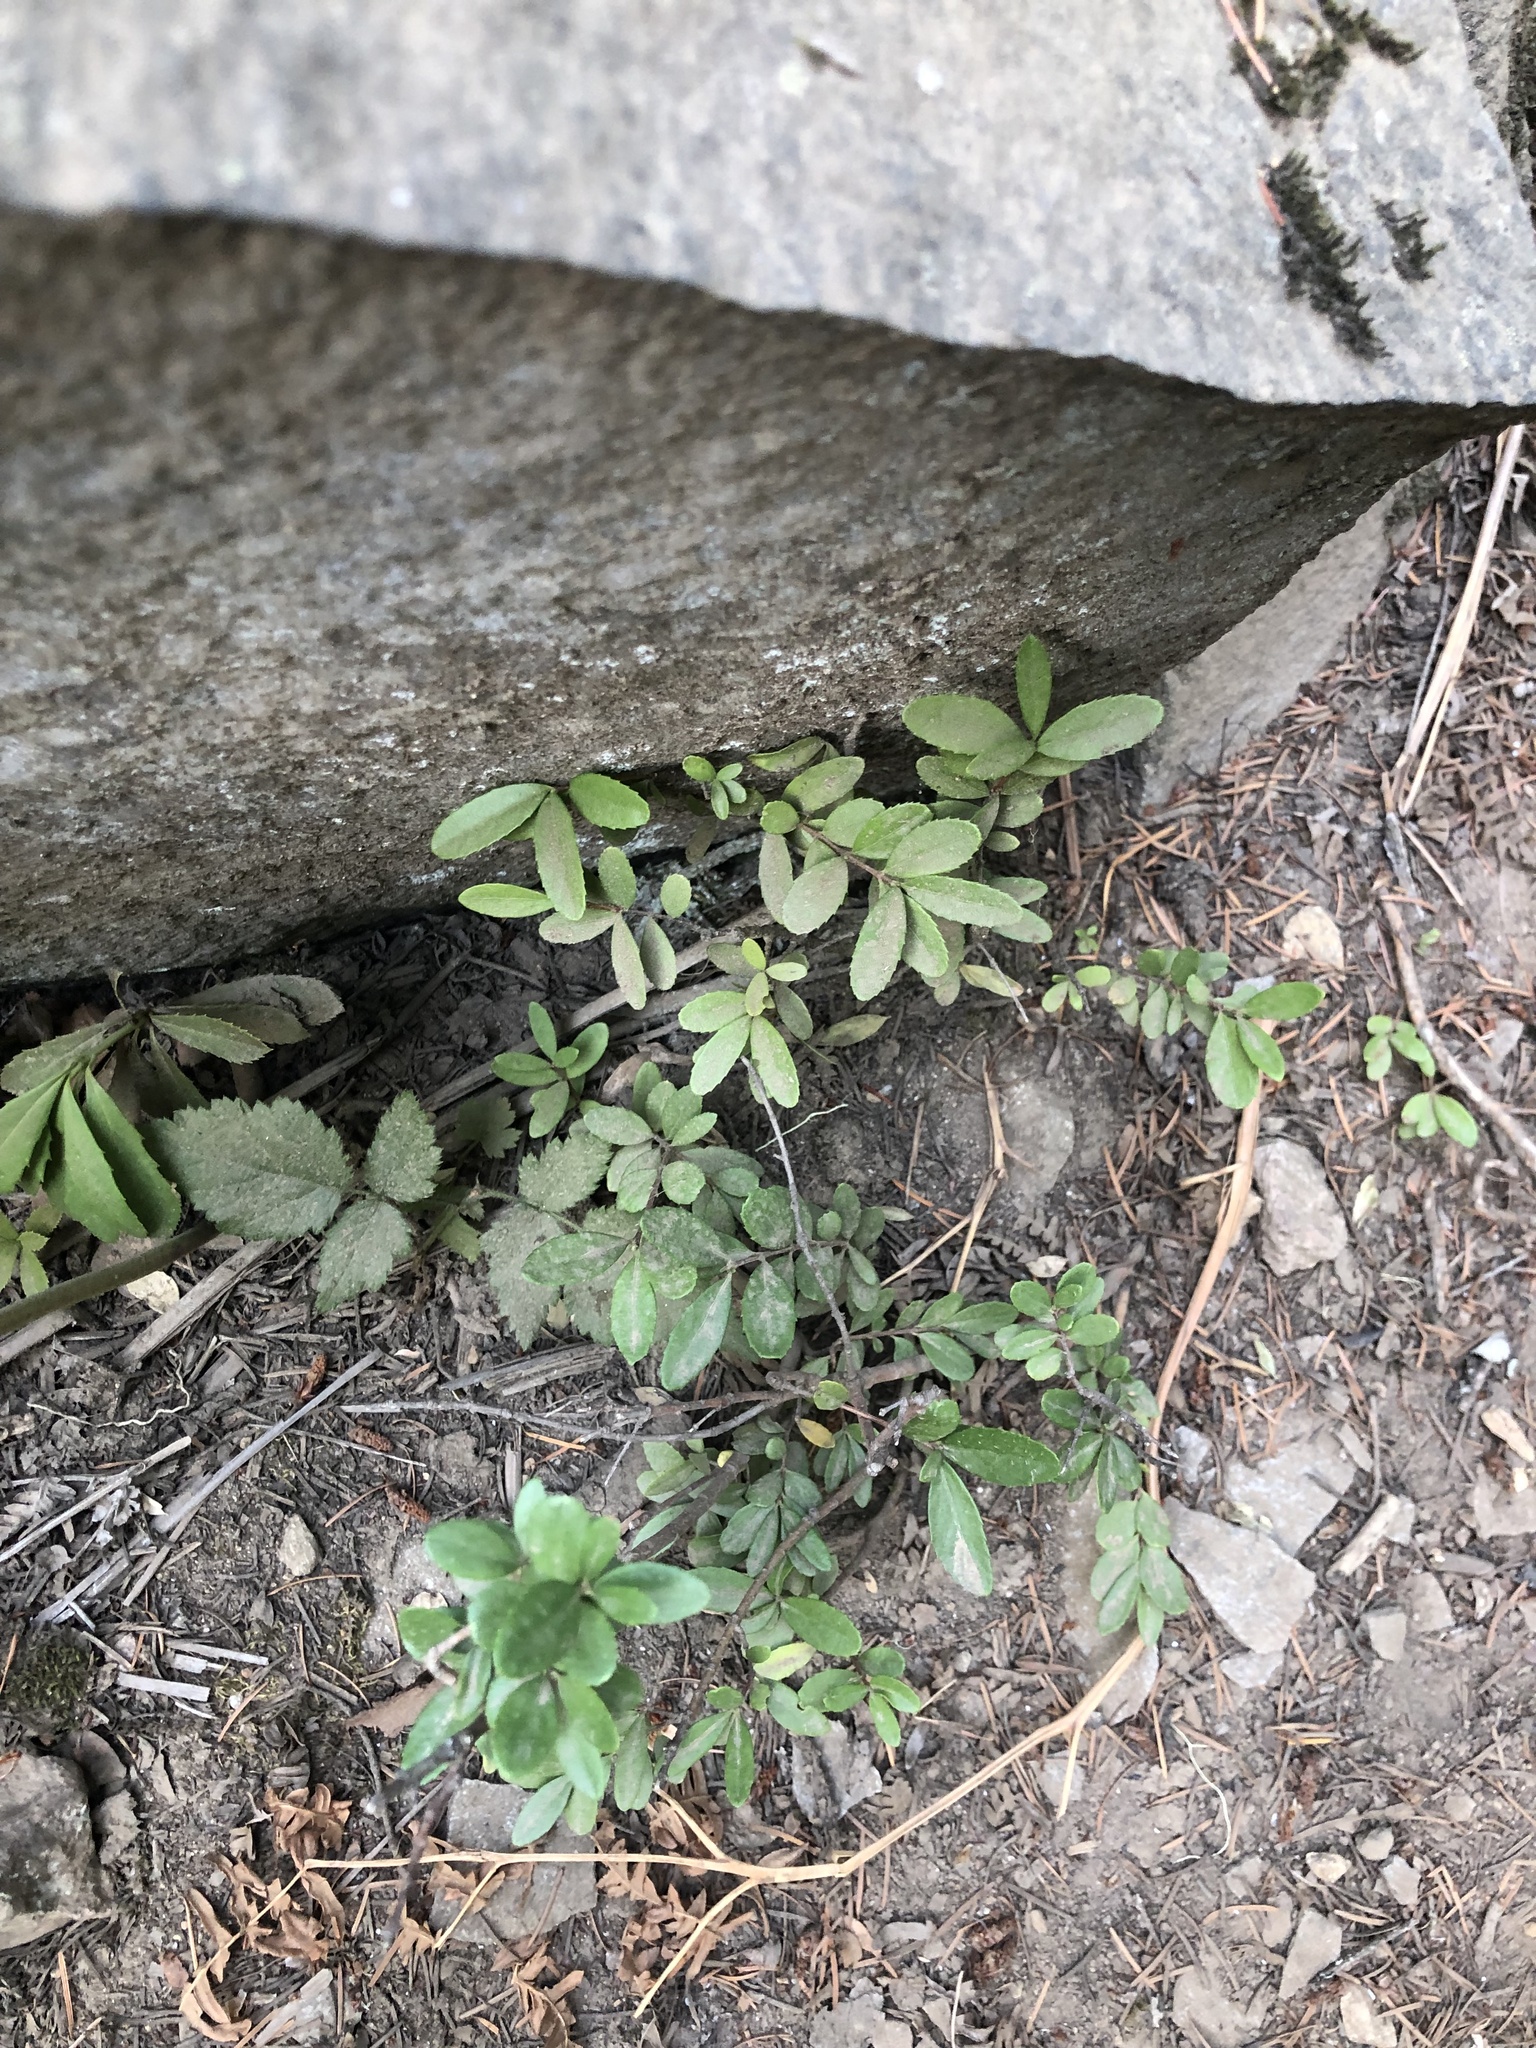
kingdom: Plantae
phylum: Tracheophyta
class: Magnoliopsida
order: Celastrales
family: Celastraceae
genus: Paxistima
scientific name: Paxistima myrsinites
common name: Mountain-lover
